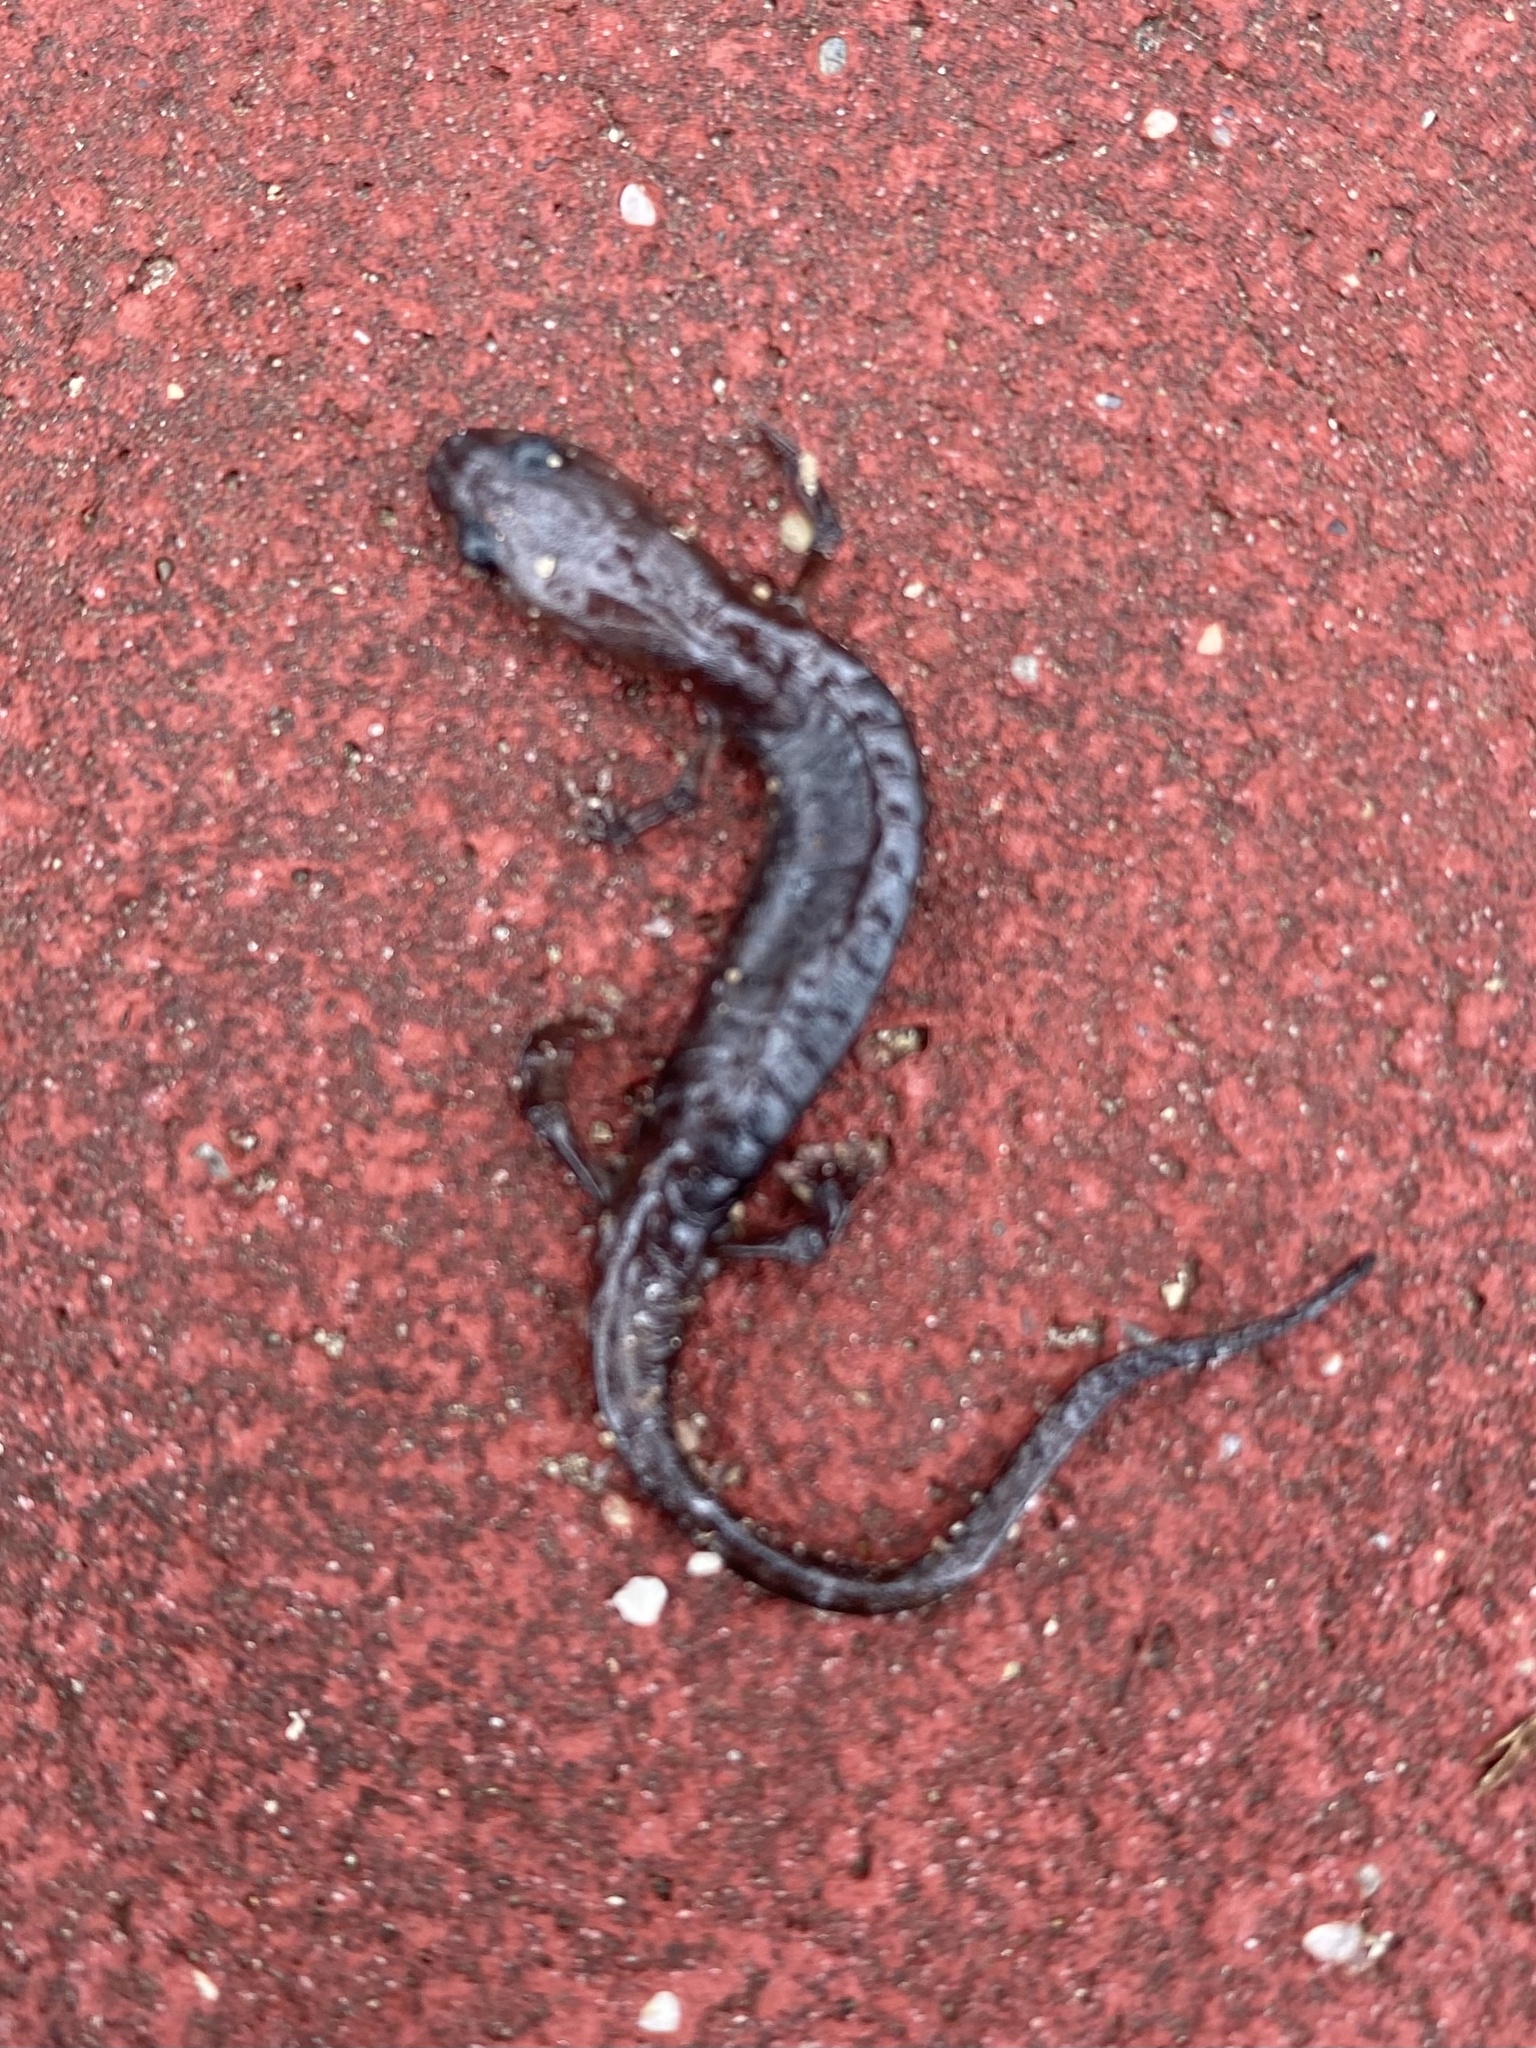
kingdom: Animalia
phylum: Chordata
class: Amphibia
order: Caudata
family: Plethodontidae
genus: Aneides
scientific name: Aneides hardii
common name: Sacramento mountain salamander
